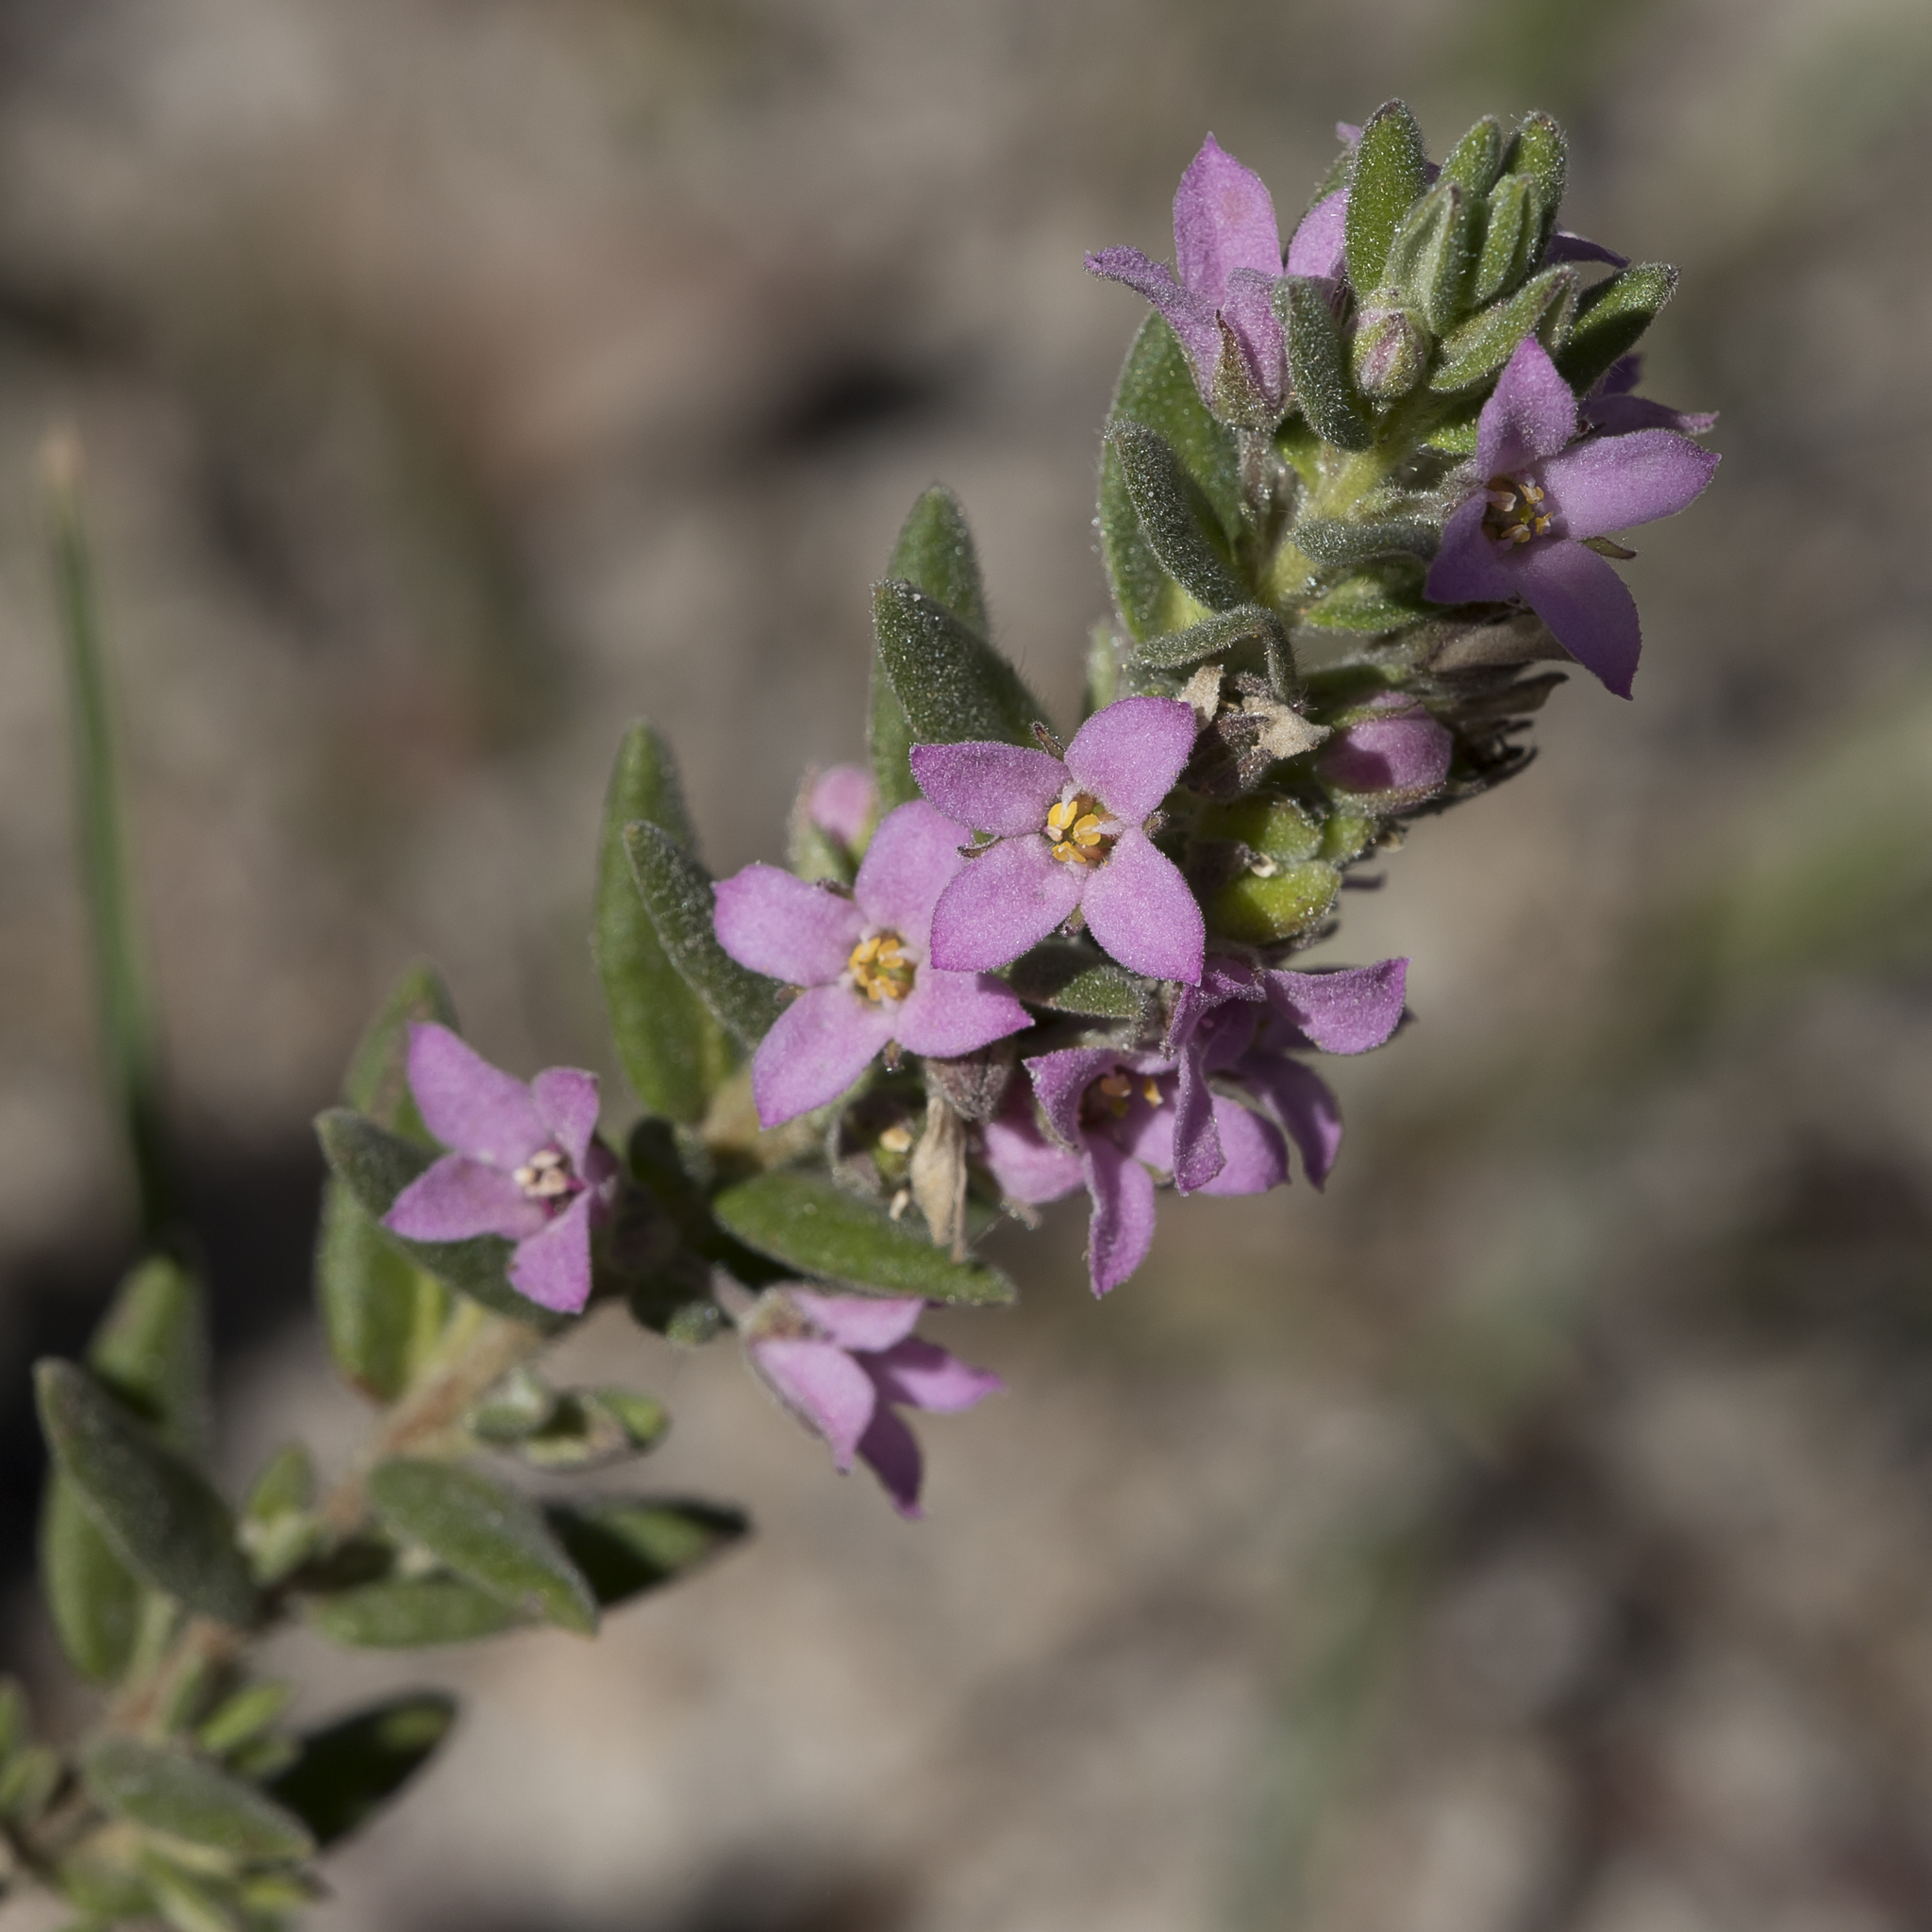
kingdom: Plantae
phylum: Tracheophyta
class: Magnoliopsida
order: Sapindales
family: Rutaceae
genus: Zieria
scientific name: Zieria veronicea
